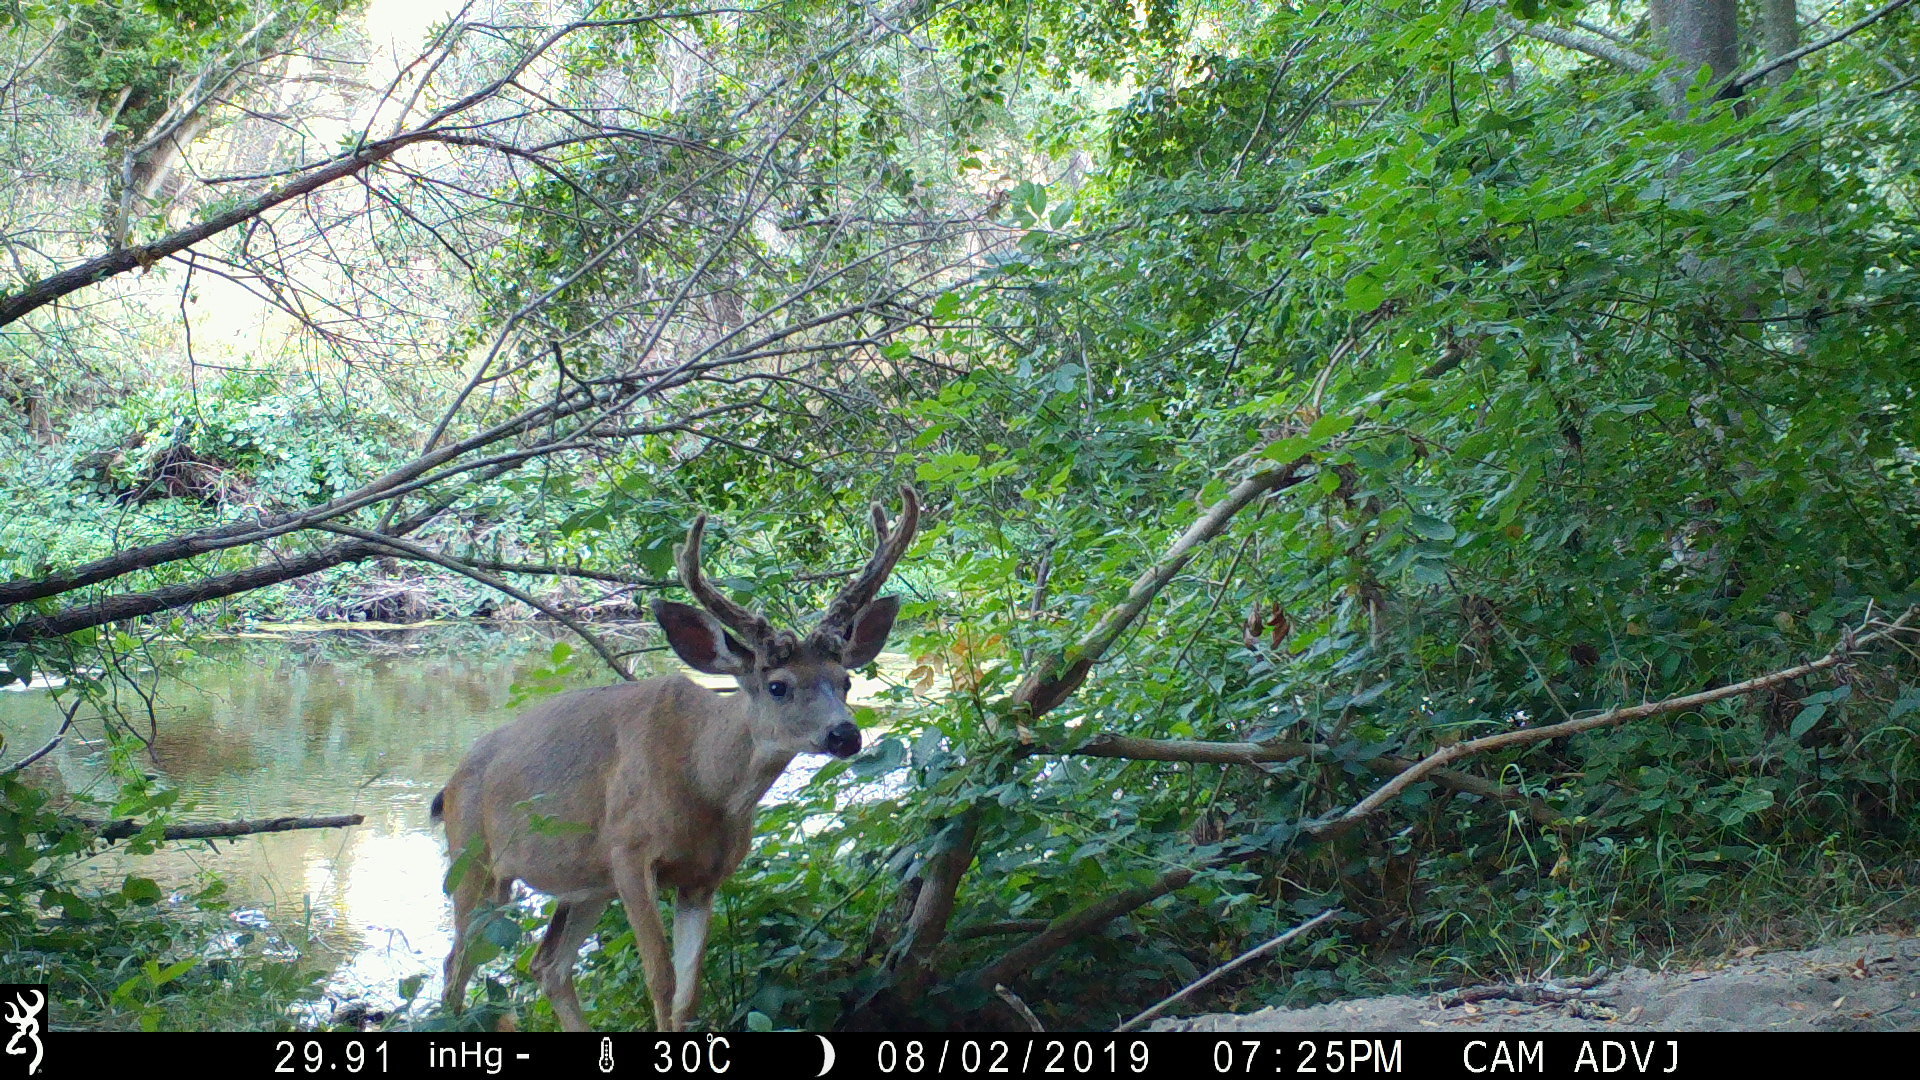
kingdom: Animalia
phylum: Chordata
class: Mammalia
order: Artiodactyla
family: Cervidae
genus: Odocoileus
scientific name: Odocoileus hemionus
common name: Mule deer
